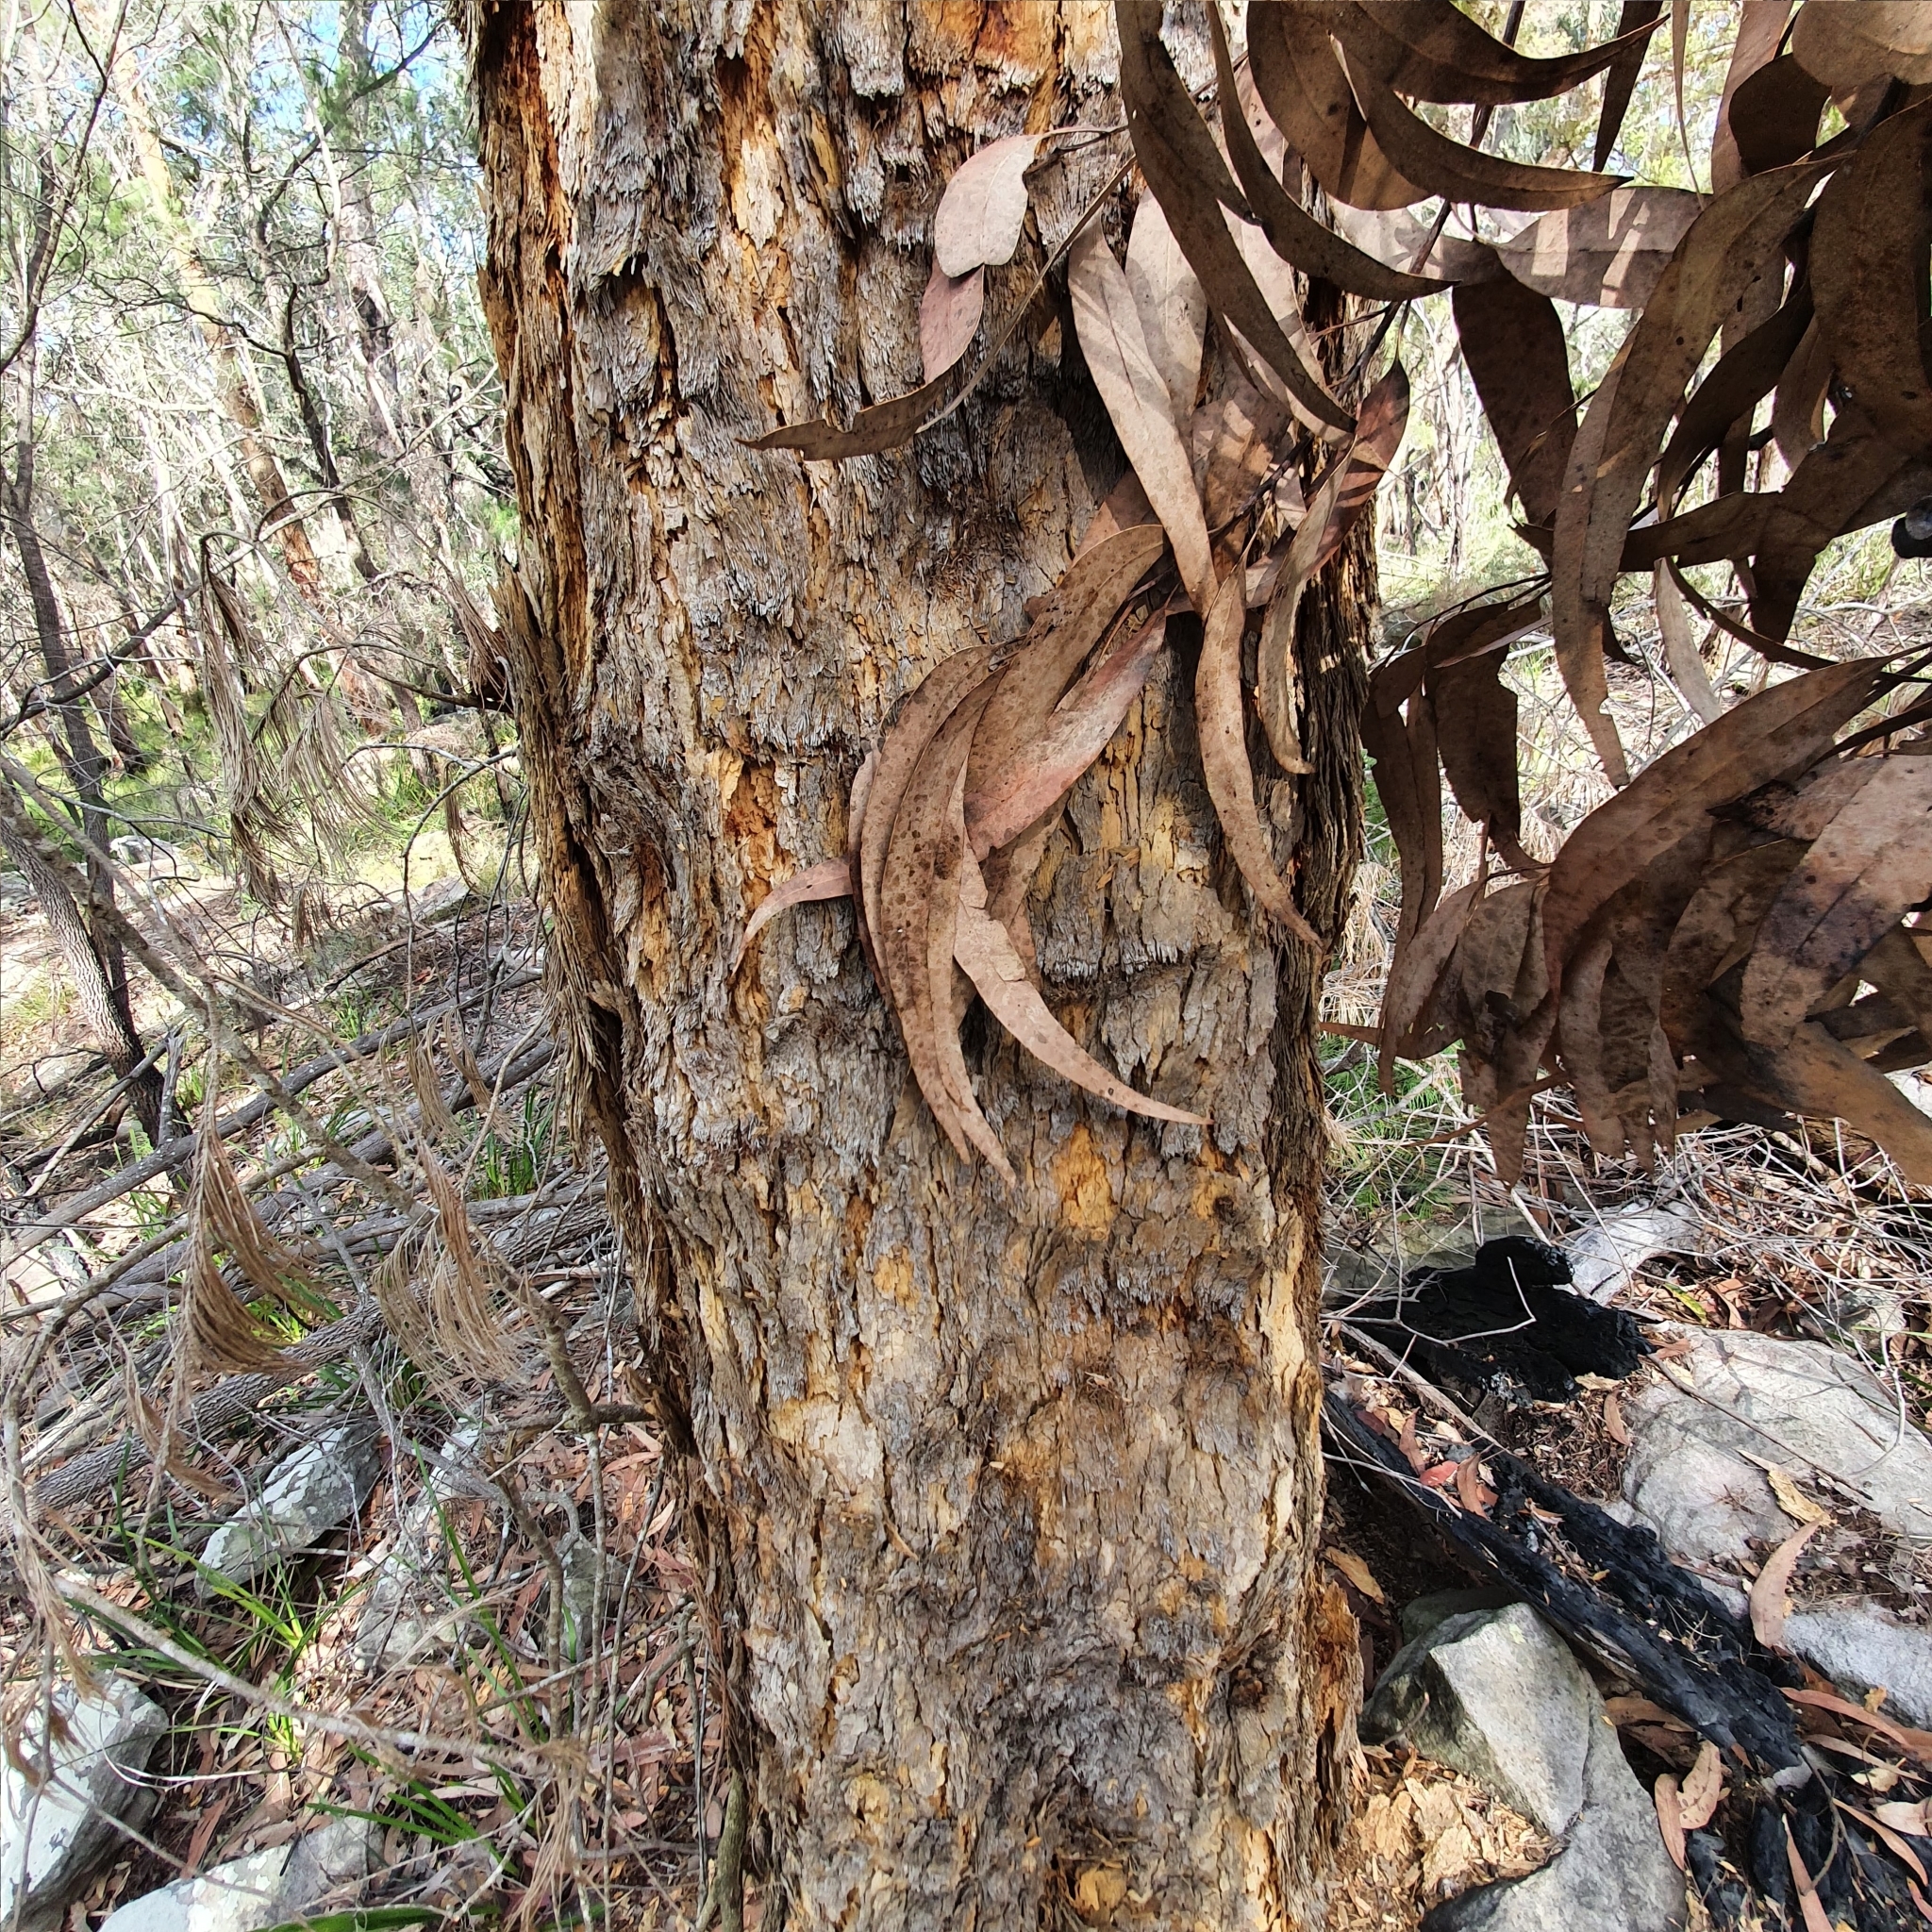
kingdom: Plantae
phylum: Tracheophyta
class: Magnoliopsida
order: Myrtales
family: Myrtaceae
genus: Corymbia
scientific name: Corymbia eximia
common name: Yellow bloodwood
